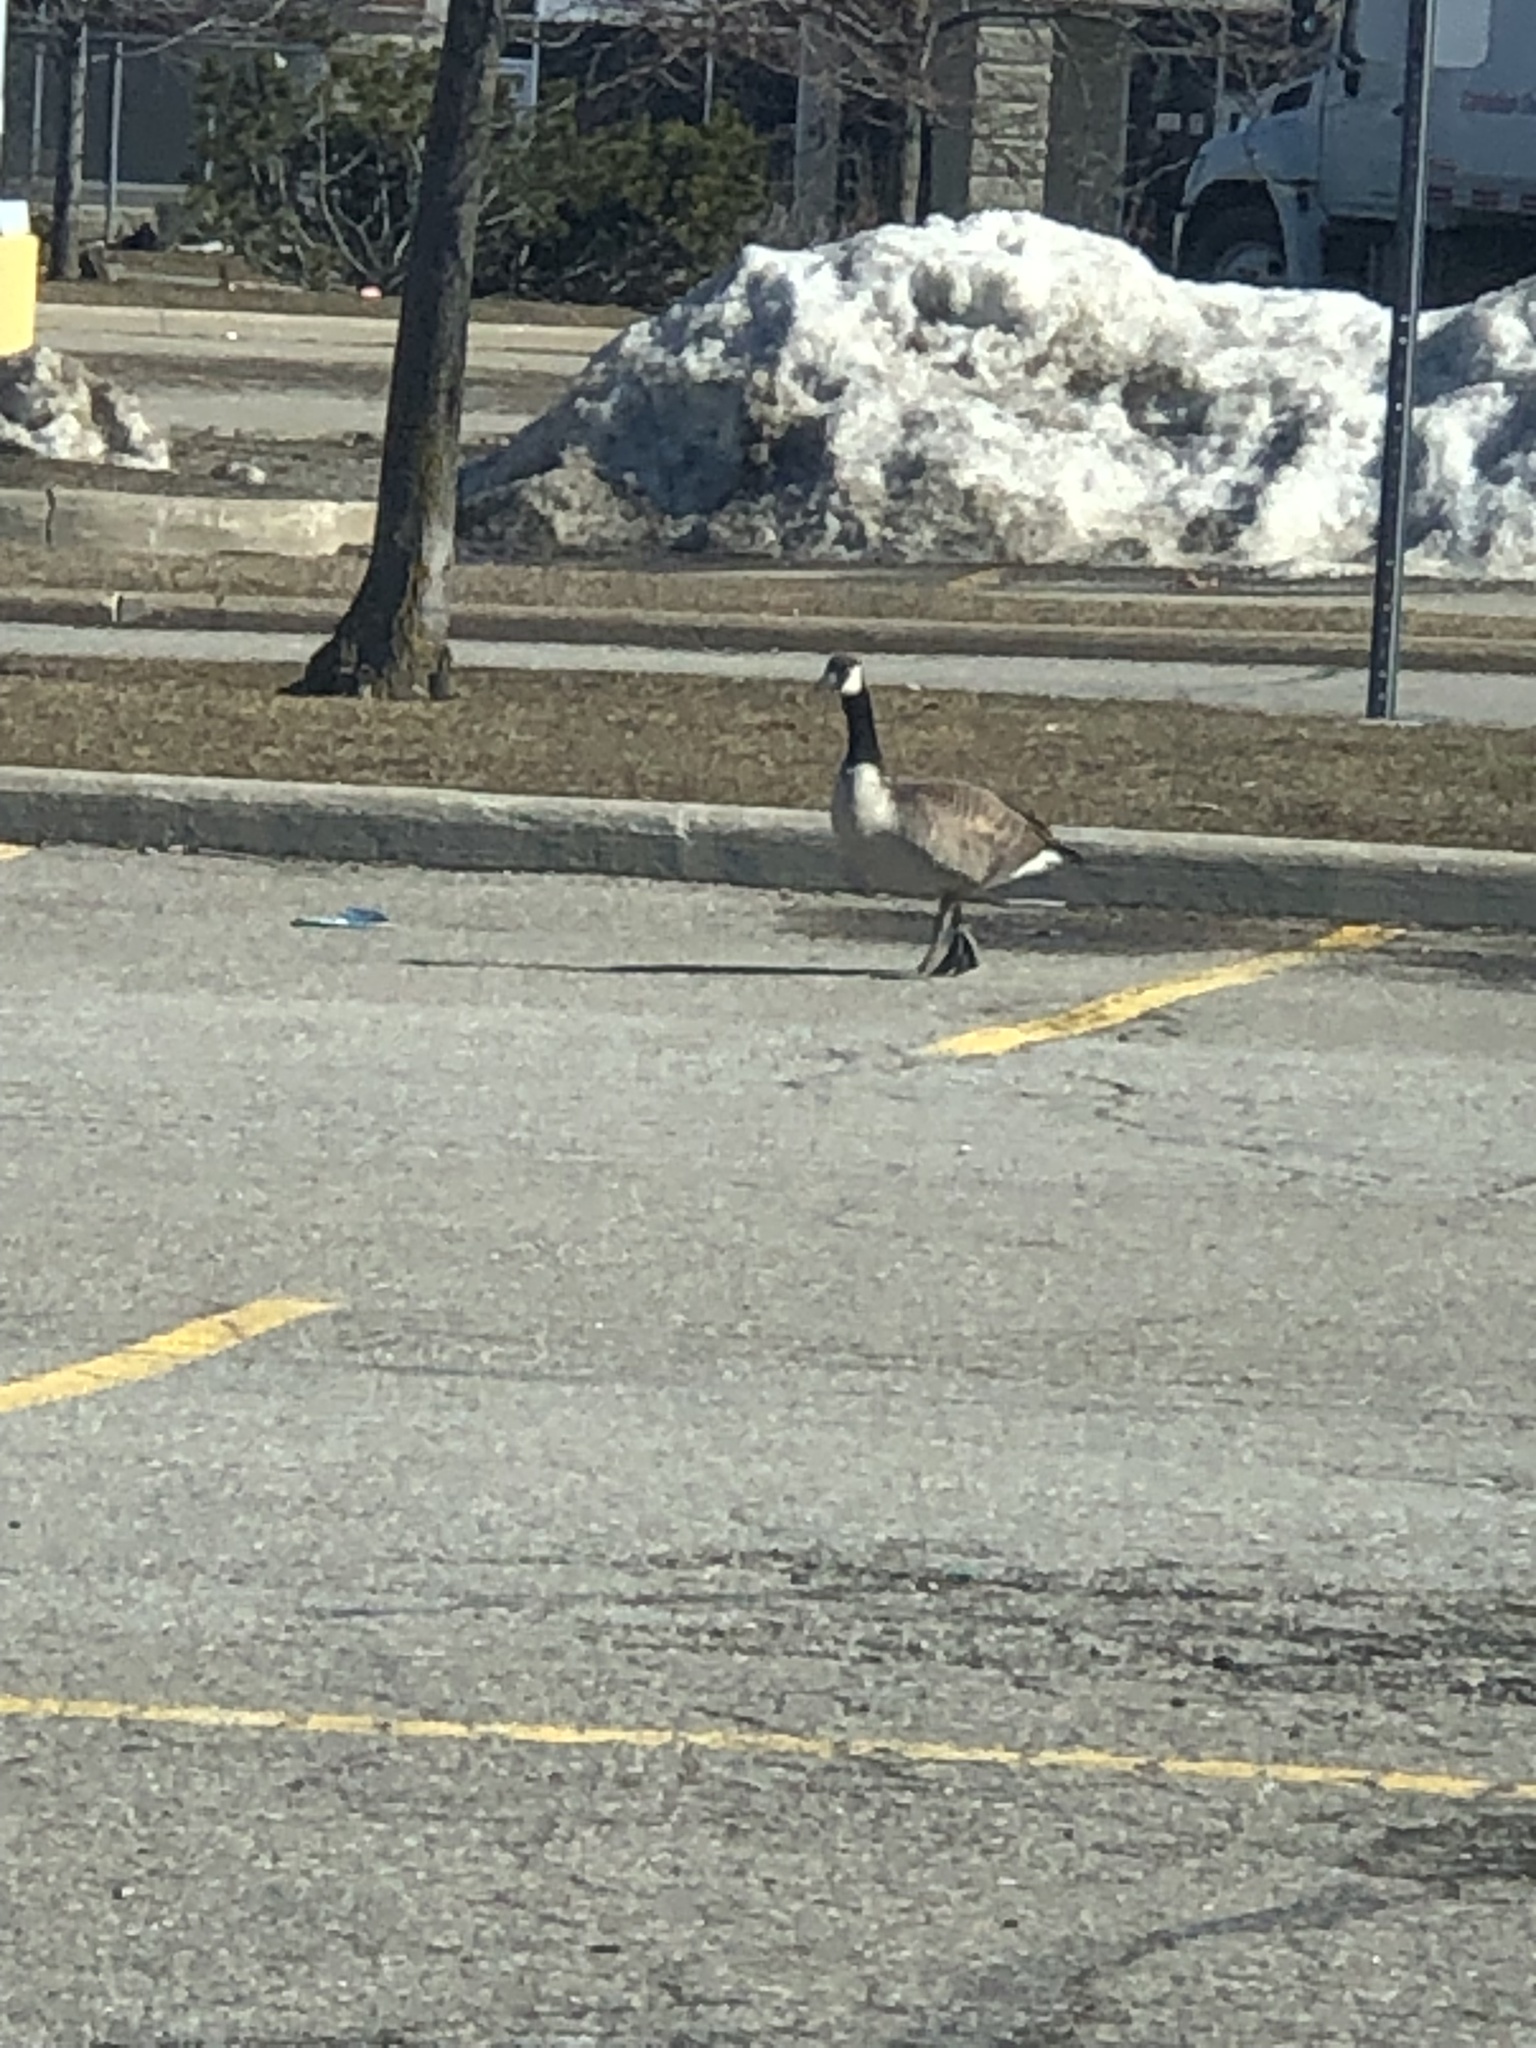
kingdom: Animalia
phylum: Chordata
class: Aves
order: Anseriformes
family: Anatidae
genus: Branta
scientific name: Branta canadensis
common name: Canada goose
